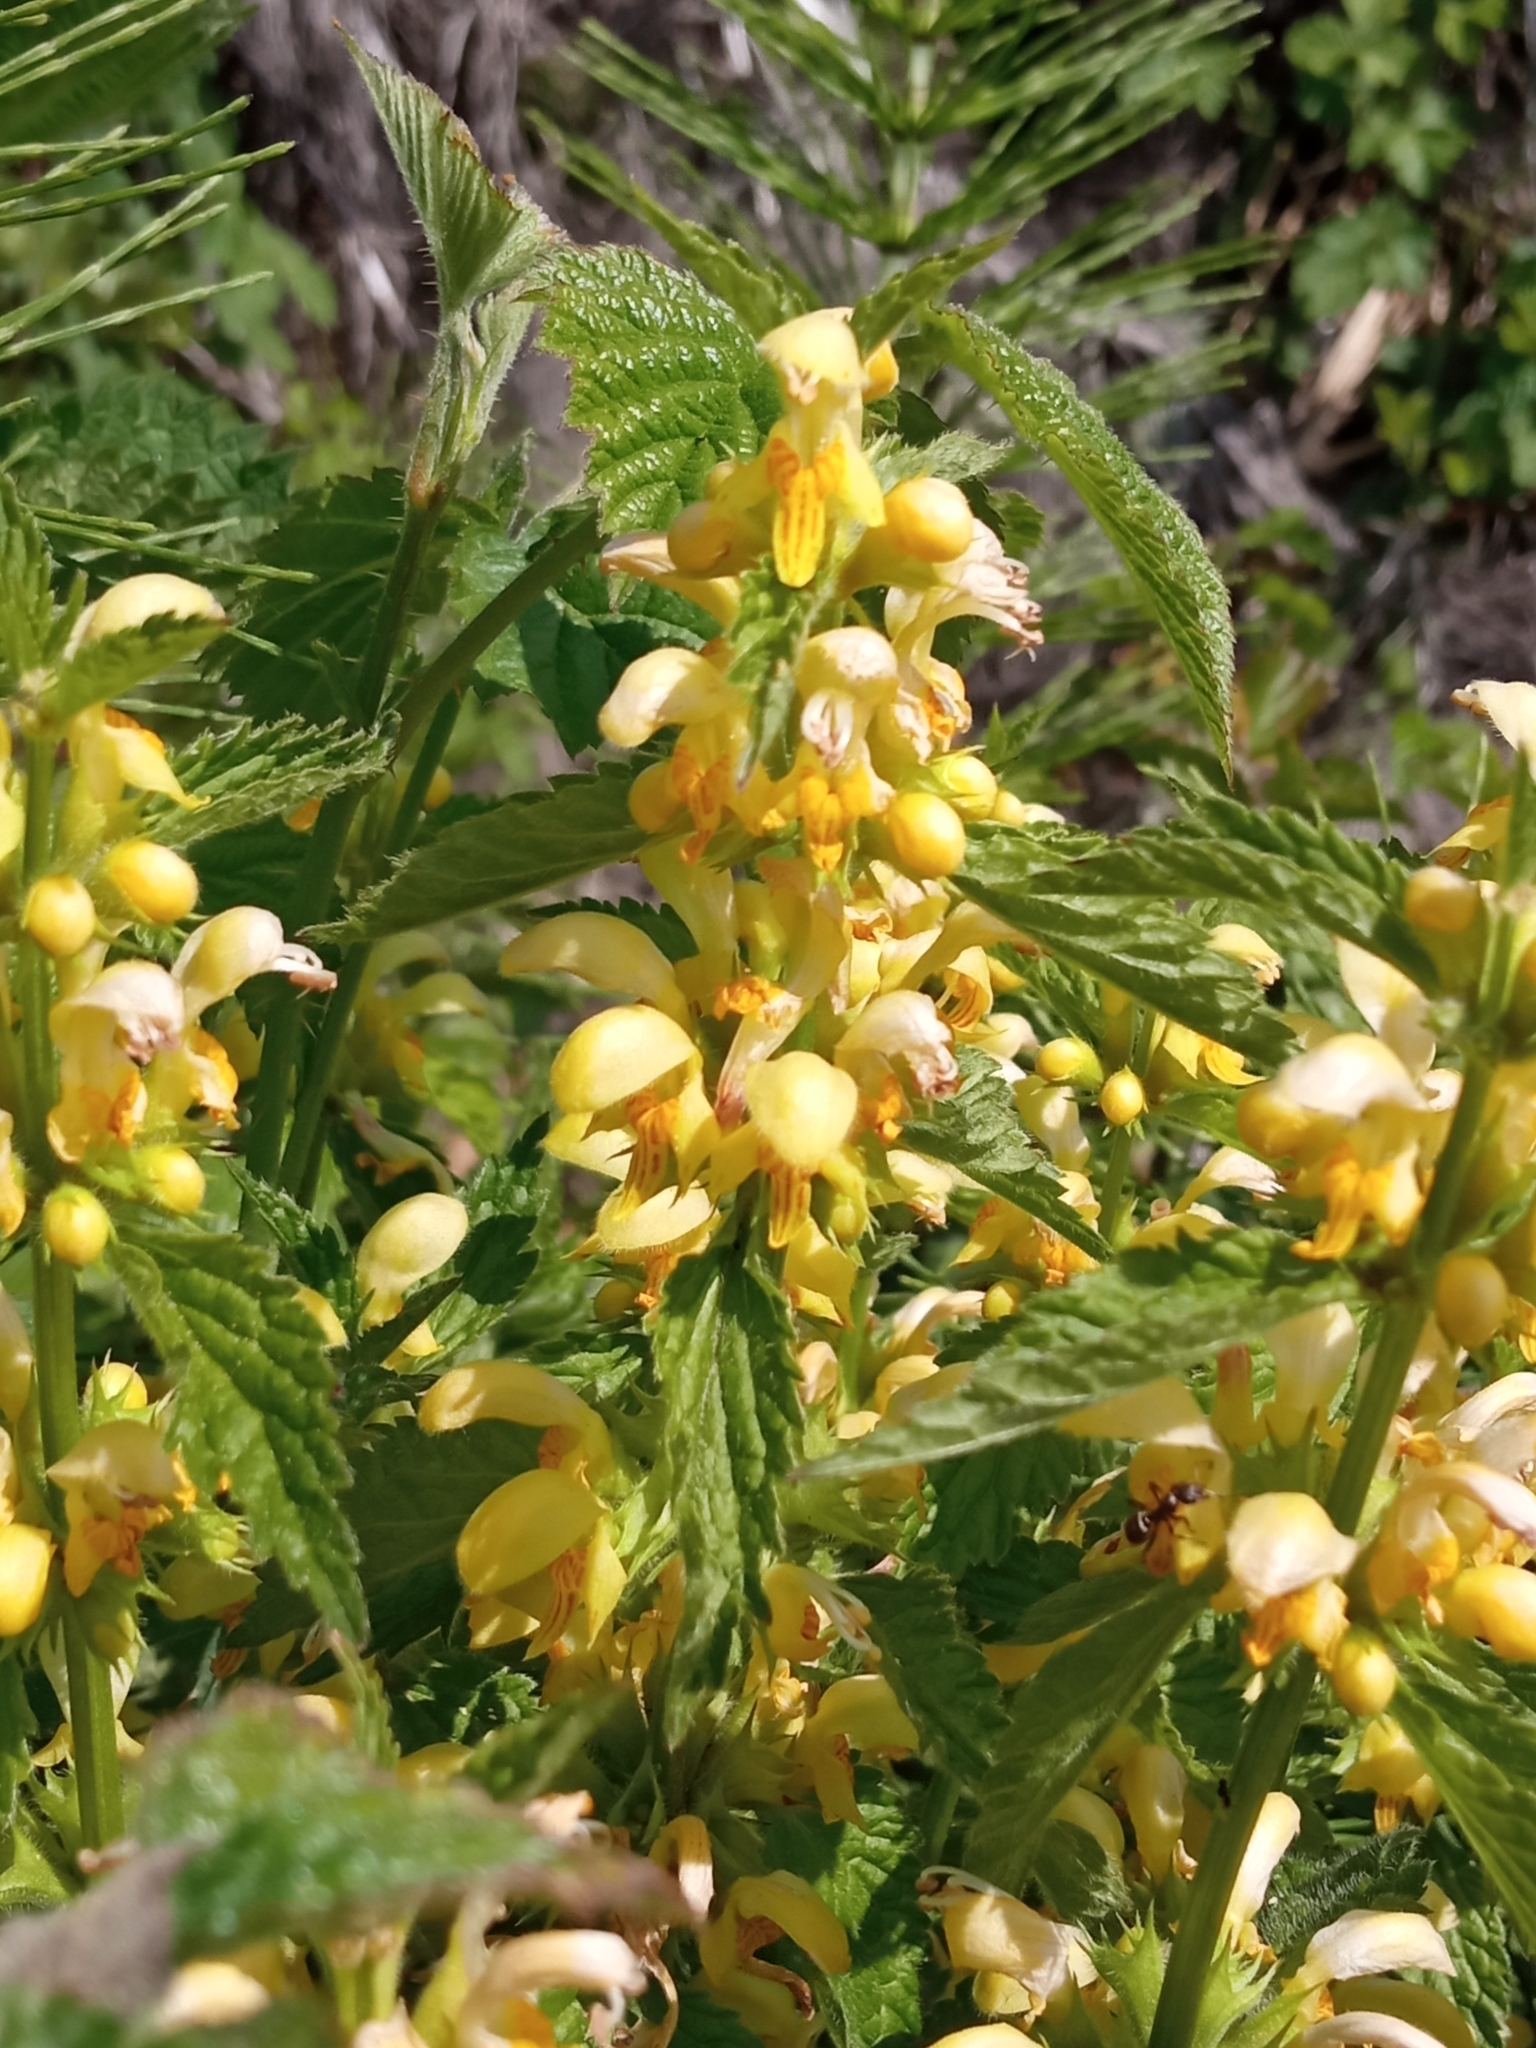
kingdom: Plantae
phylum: Tracheophyta
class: Magnoliopsida
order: Lamiales
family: Lamiaceae
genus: Lamium
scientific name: Lamium galeobdolon
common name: Yellow archangel
